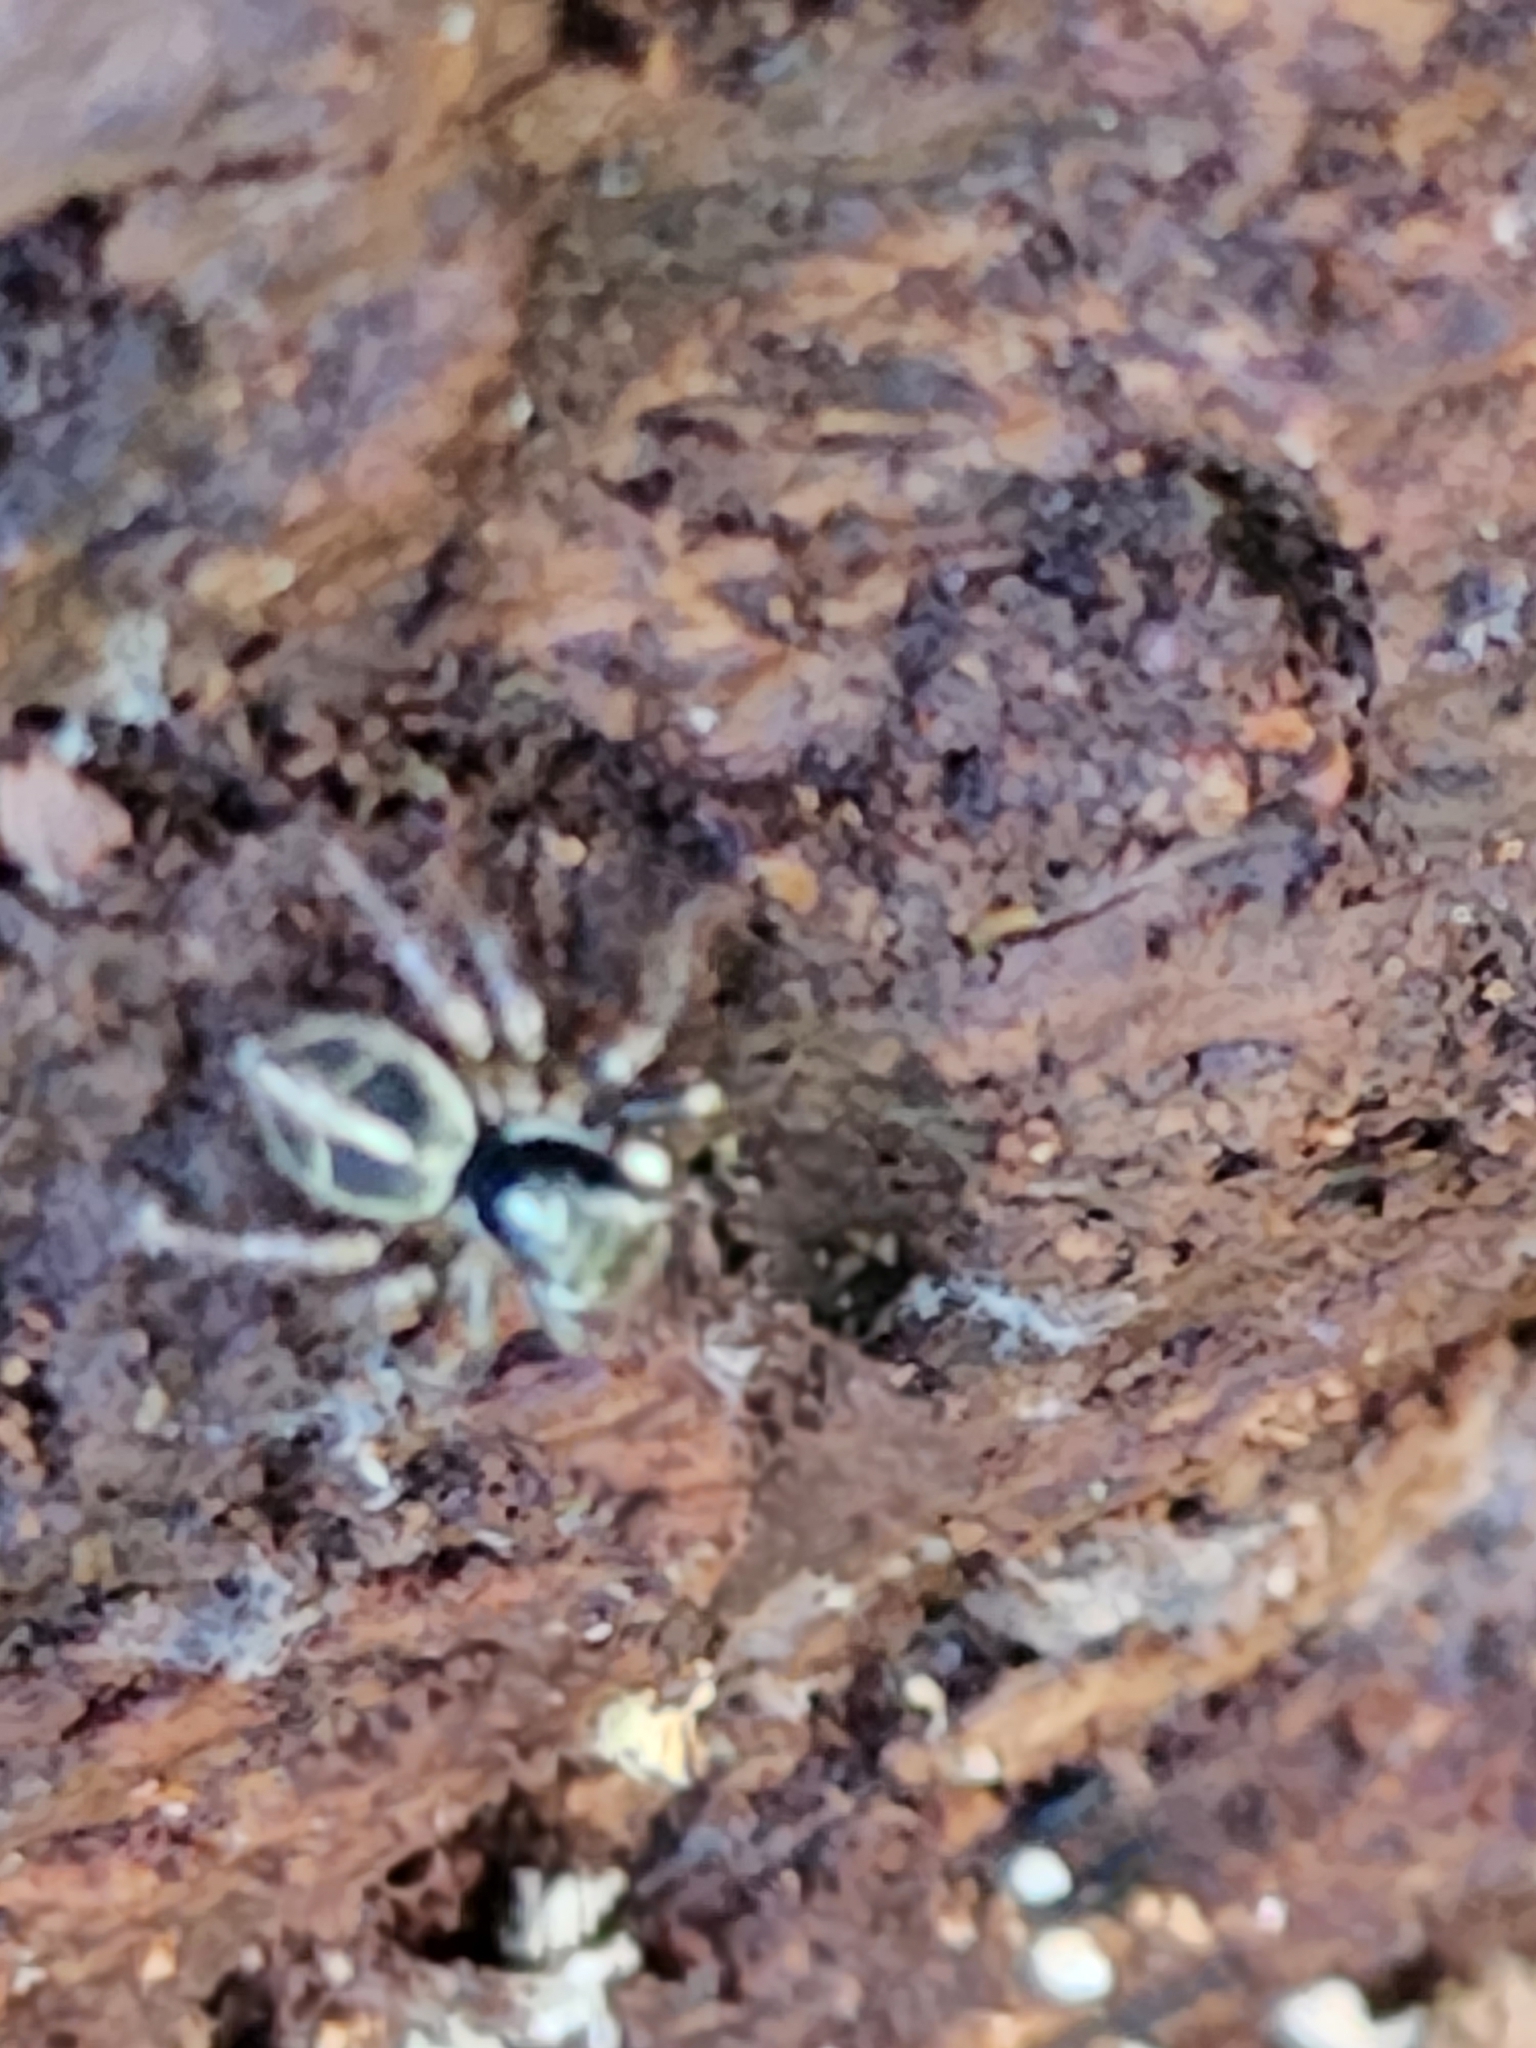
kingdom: Animalia
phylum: Arthropoda
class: Arachnida
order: Araneae
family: Salticidae
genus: Anasaitis
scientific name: Anasaitis canosa
